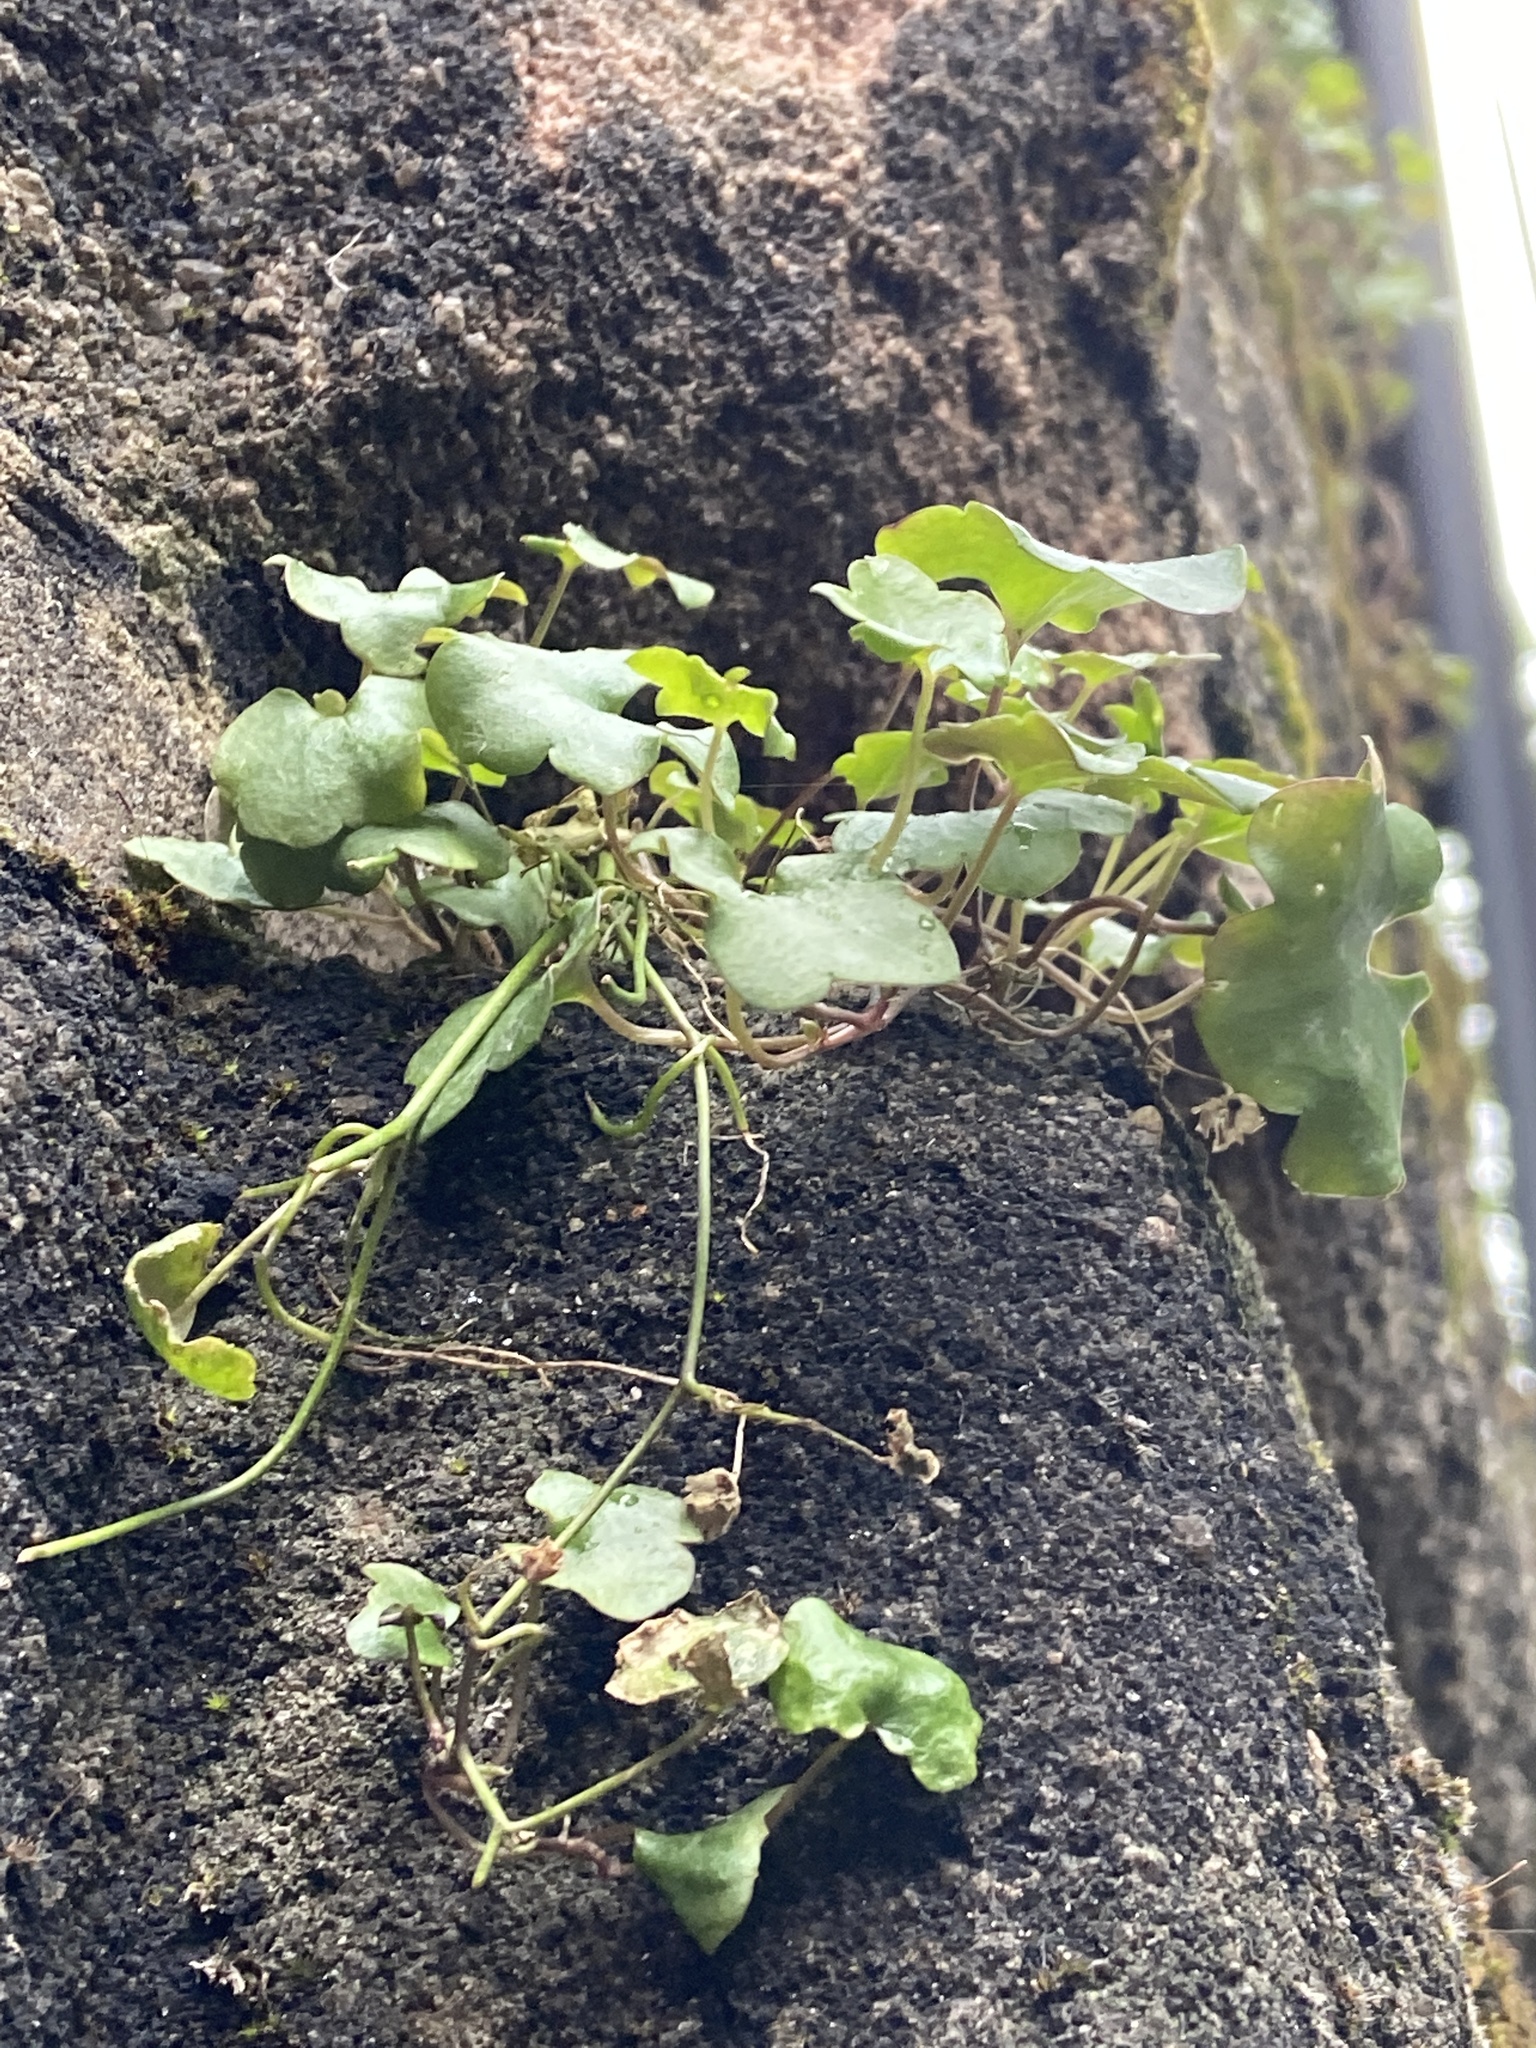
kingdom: Plantae
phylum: Tracheophyta
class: Magnoliopsida
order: Lamiales
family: Plantaginaceae
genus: Cymbalaria
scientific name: Cymbalaria muralis
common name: Ivy-leaved toadflax
